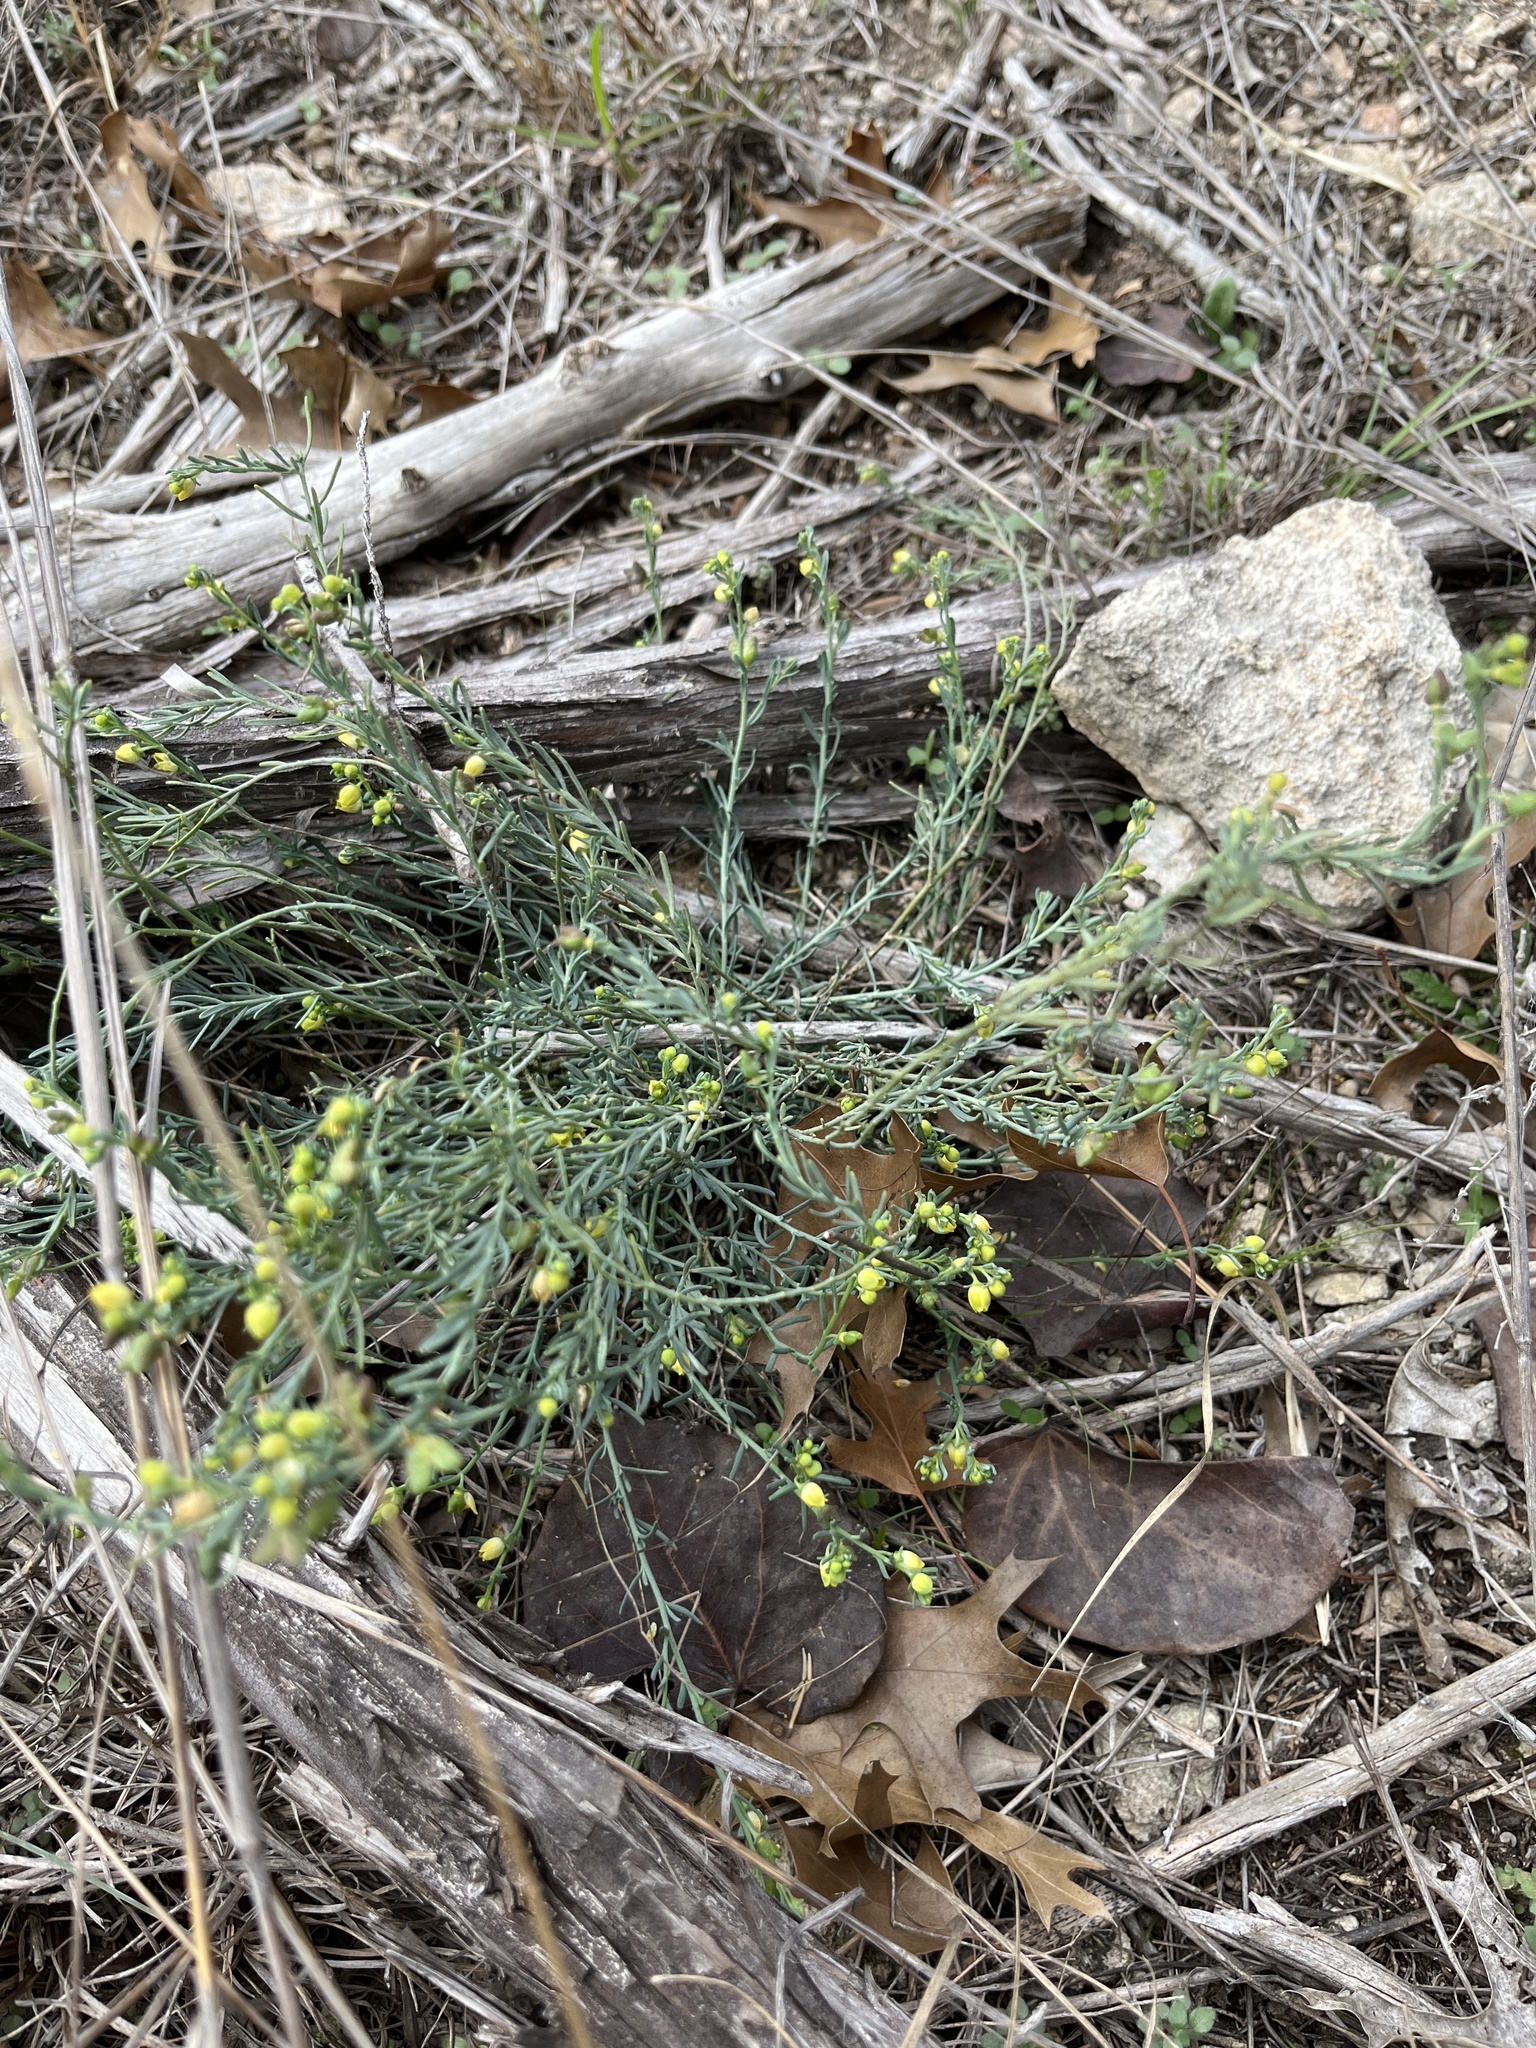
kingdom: Plantae
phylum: Tracheophyta
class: Magnoliopsida
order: Sapindales
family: Rutaceae
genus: Thamnosma
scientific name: Thamnosma texana
